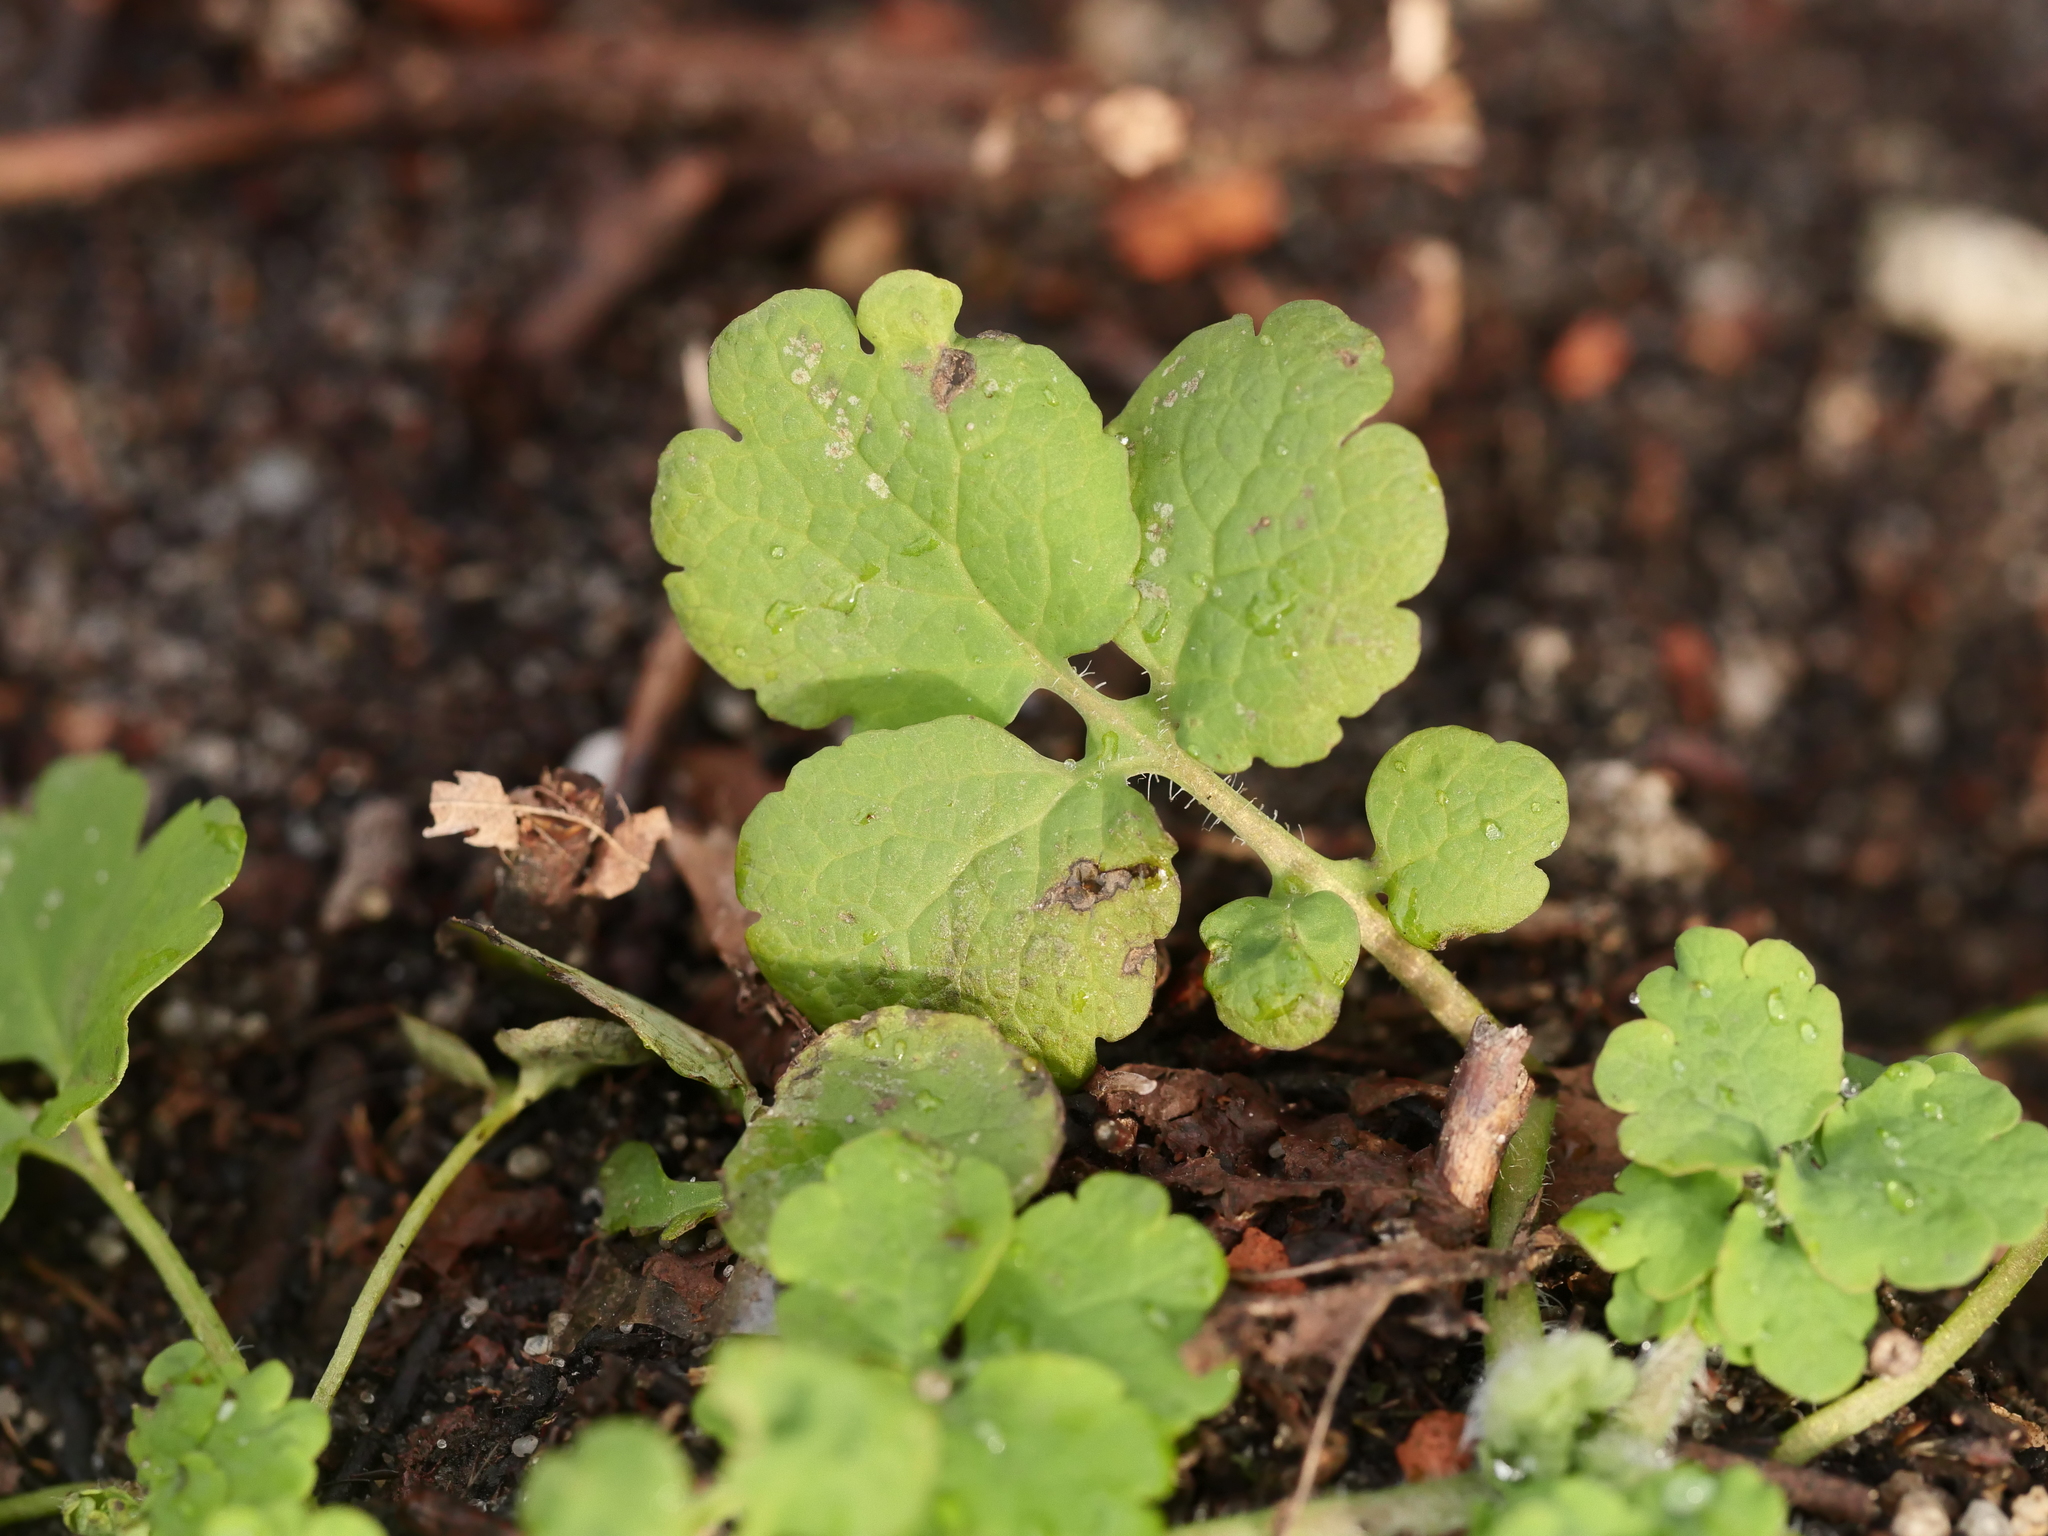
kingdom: Plantae
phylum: Tracheophyta
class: Magnoliopsida
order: Ranunculales
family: Papaveraceae
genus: Chelidonium
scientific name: Chelidonium majus
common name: Greater celandine
